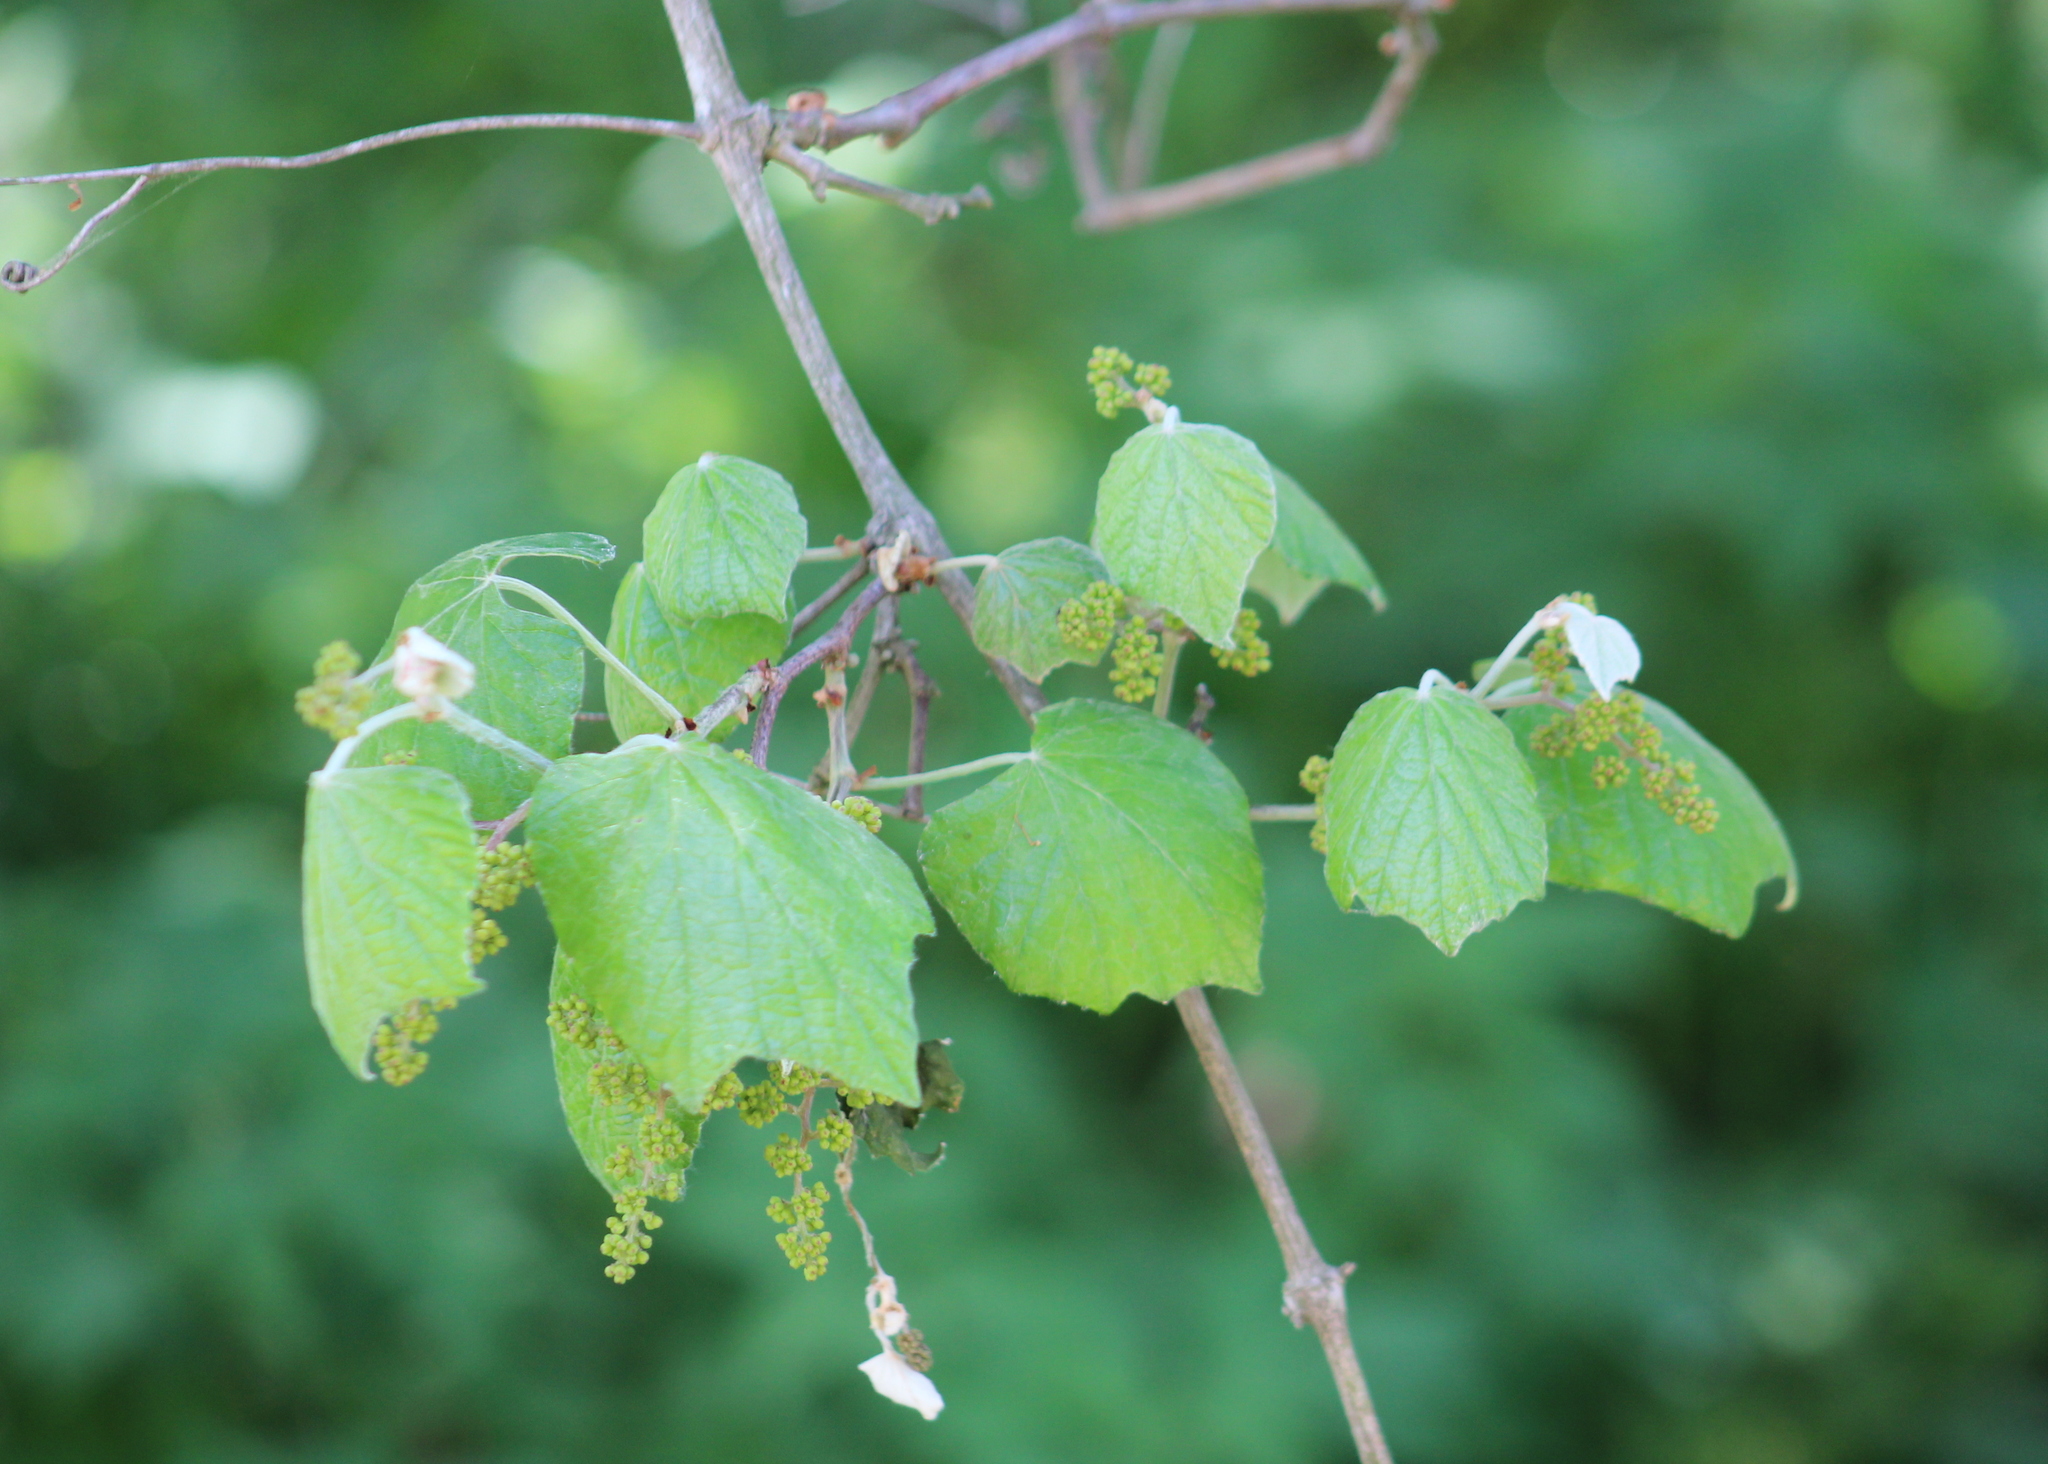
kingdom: Plantae
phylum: Tracheophyta
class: Magnoliopsida
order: Vitales
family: Vitaceae
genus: Vitis
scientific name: Vitis mustangensis
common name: Mustang grape
